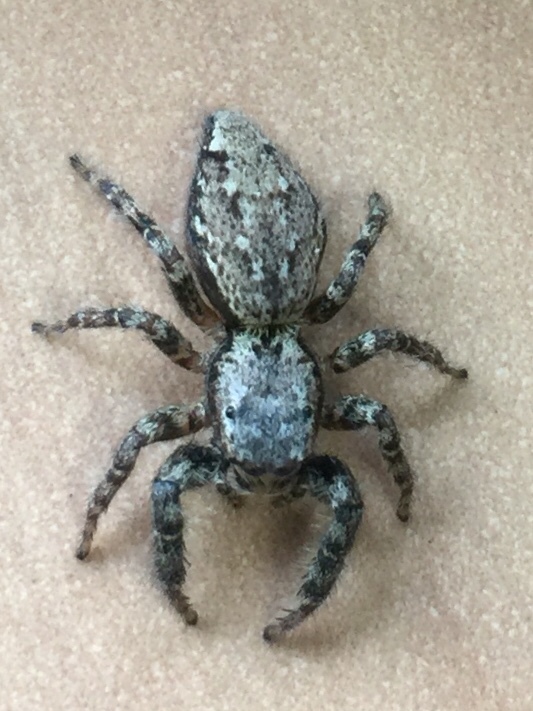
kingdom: Animalia
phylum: Arthropoda
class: Arachnida
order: Araneae
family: Salticidae
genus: Marpissa
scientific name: Marpissa muscosa
